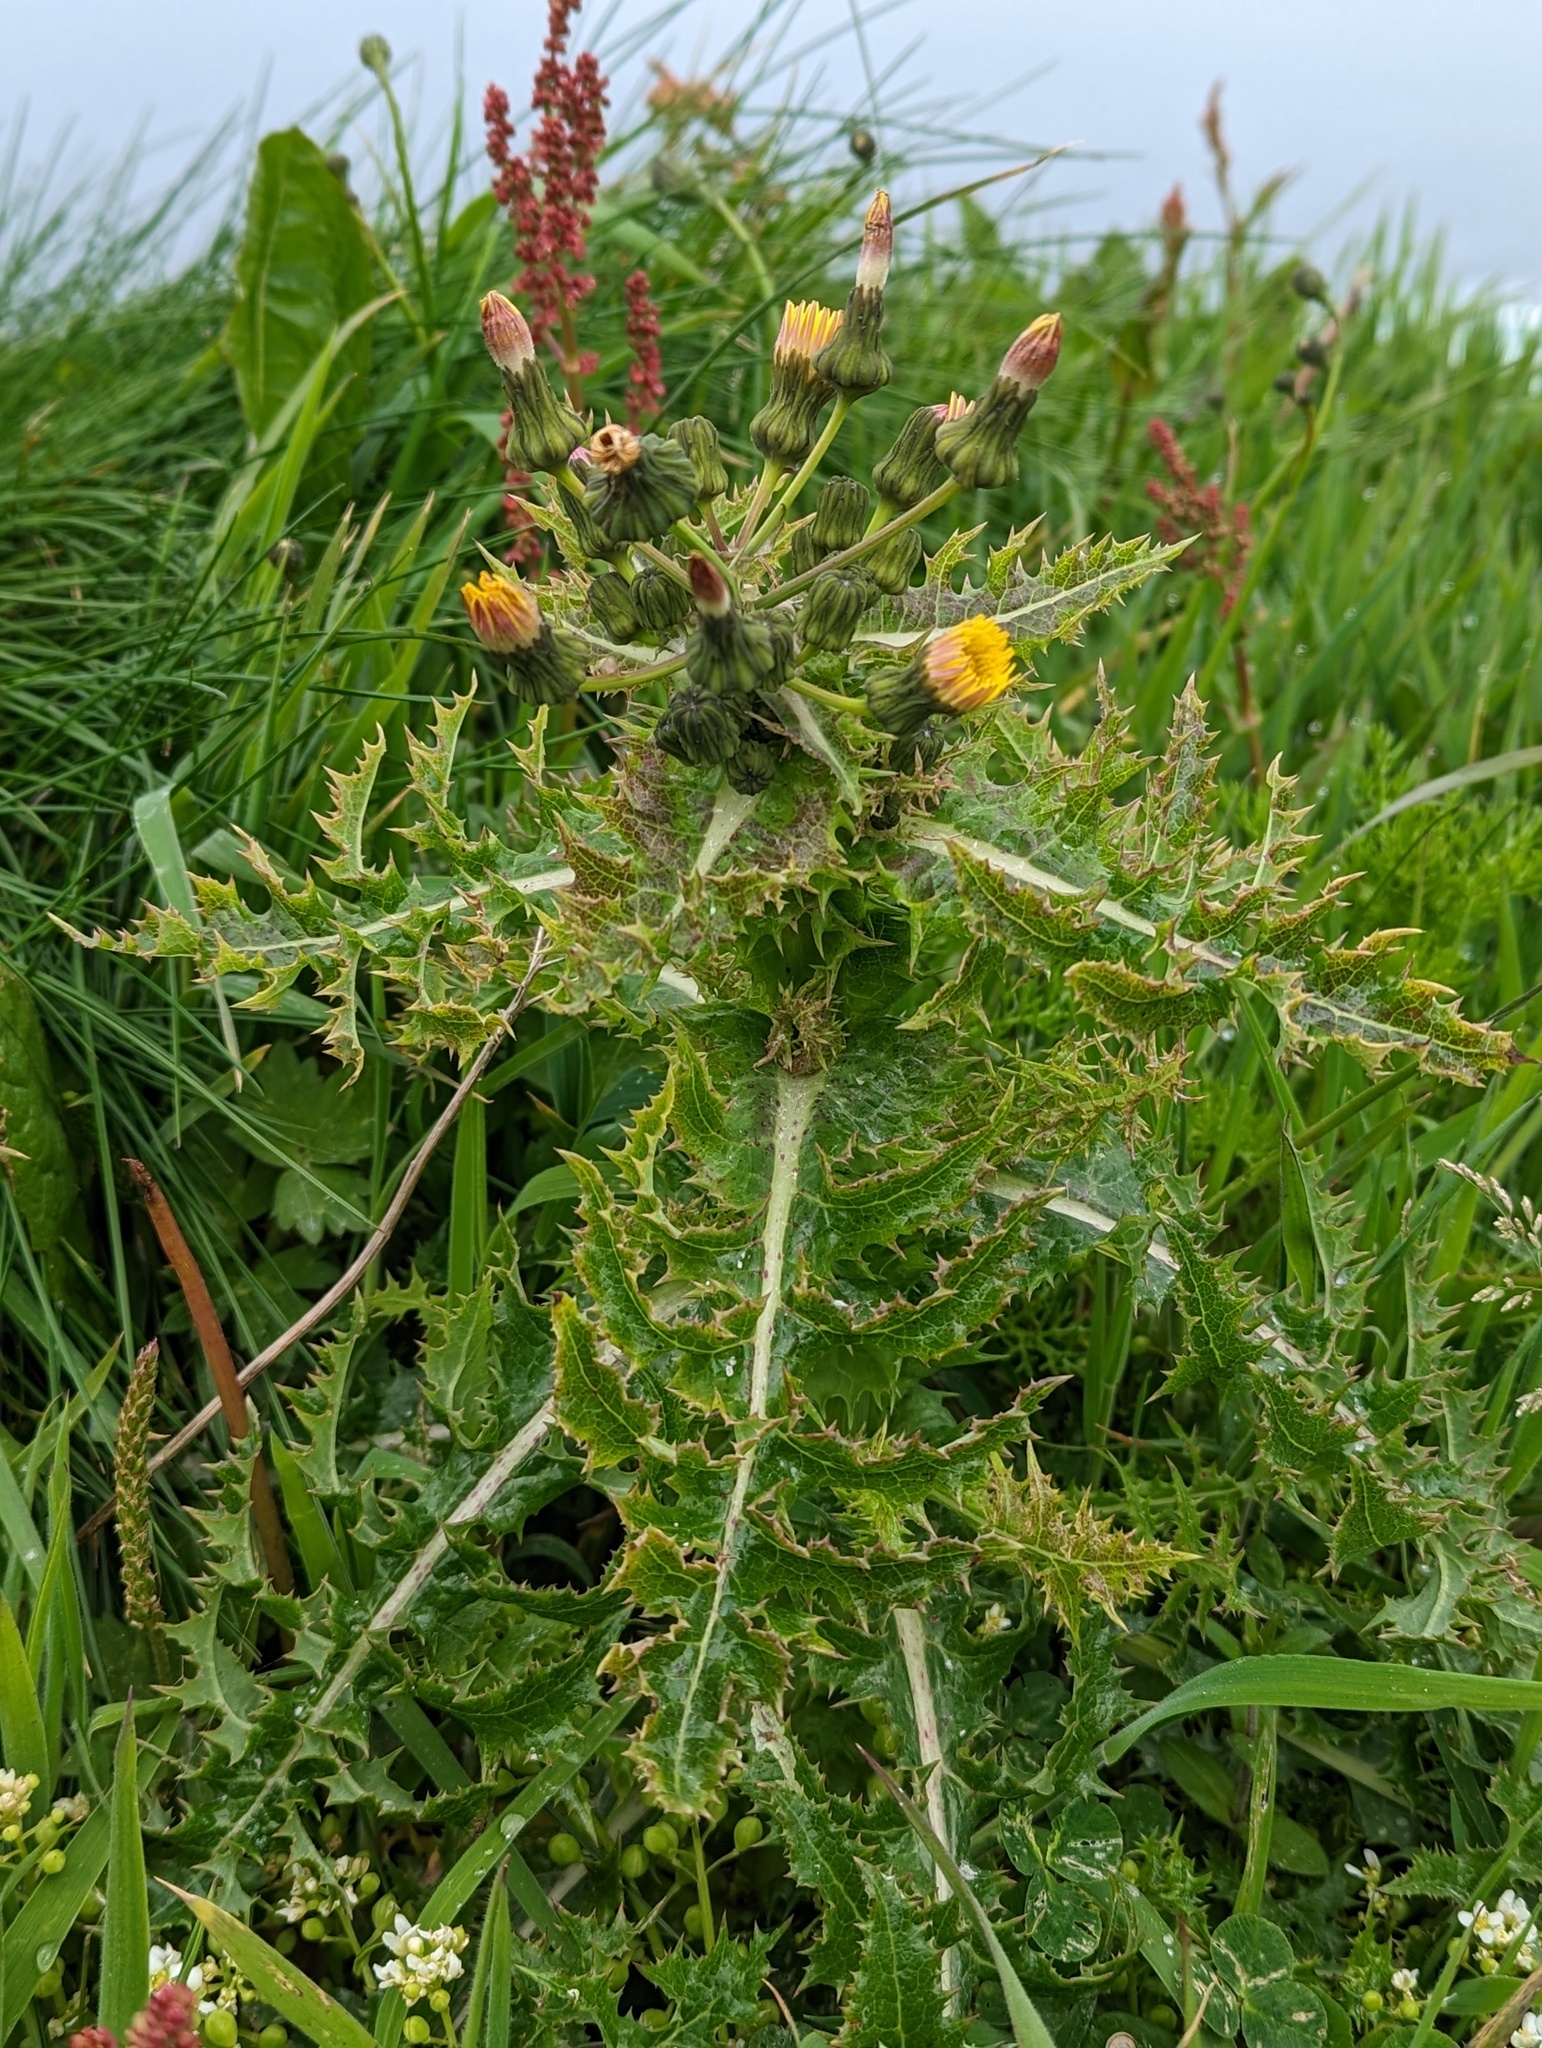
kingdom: Plantae
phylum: Tracheophyta
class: Magnoliopsida
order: Asterales
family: Asteraceae
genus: Sonchus
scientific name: Sonchus asper
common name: Prickly sow-thistle
